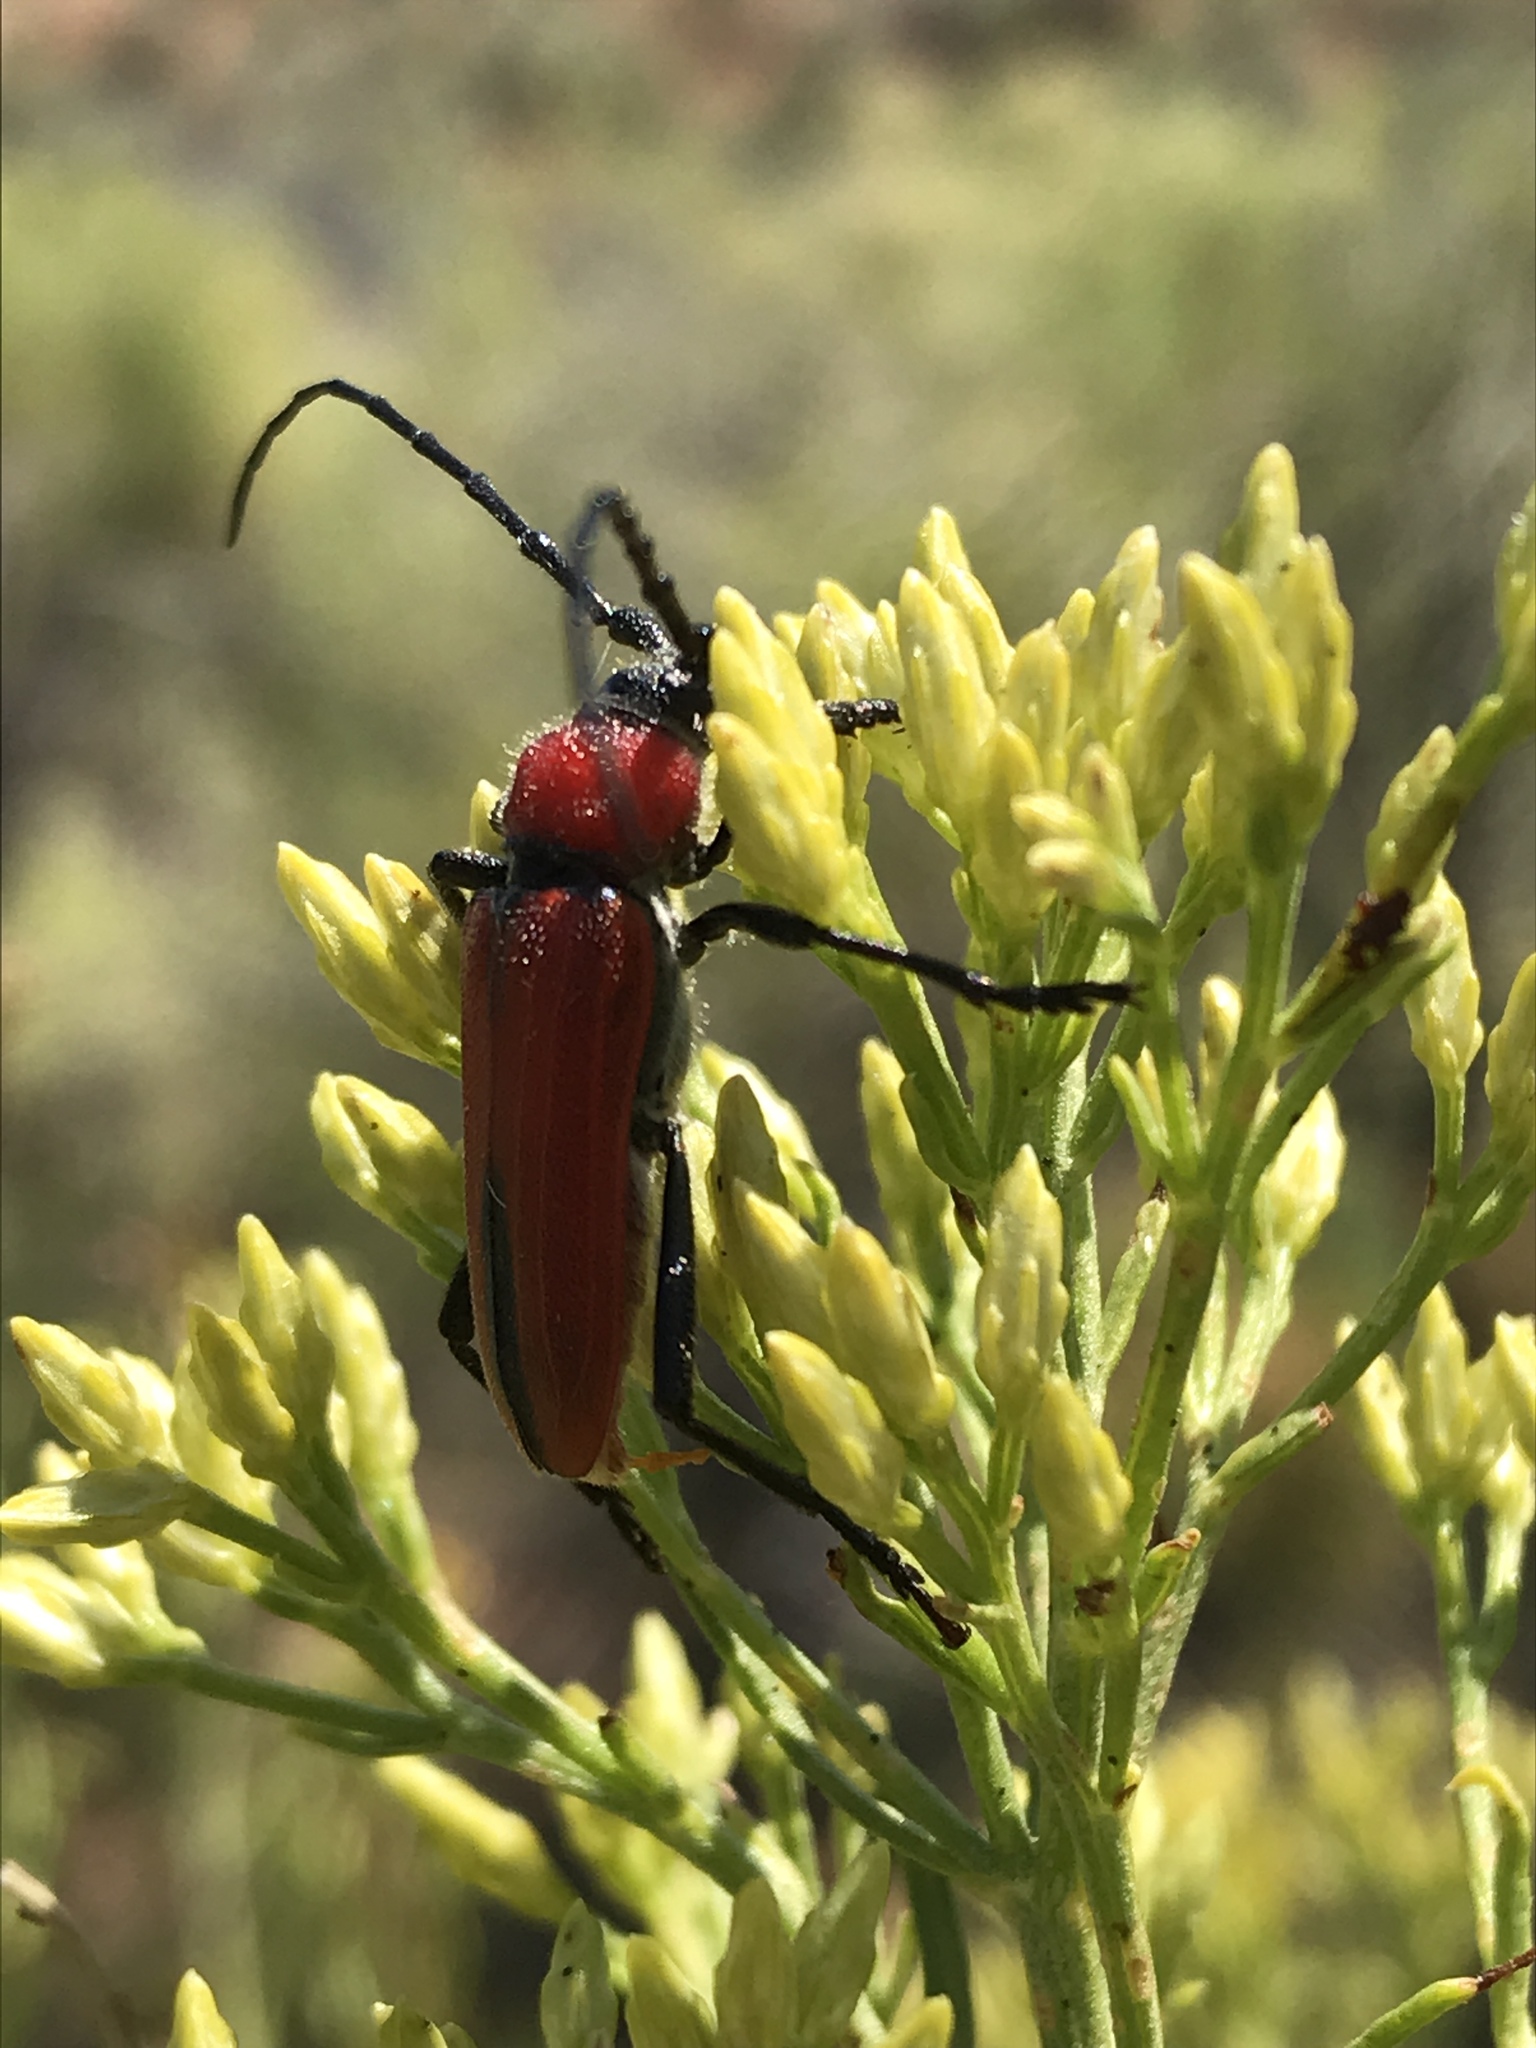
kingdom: Animalia
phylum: Arthropoda
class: Insecta
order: Coleoptera
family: Cerambycidae
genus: Crossidius
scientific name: Crossidius coralinus
